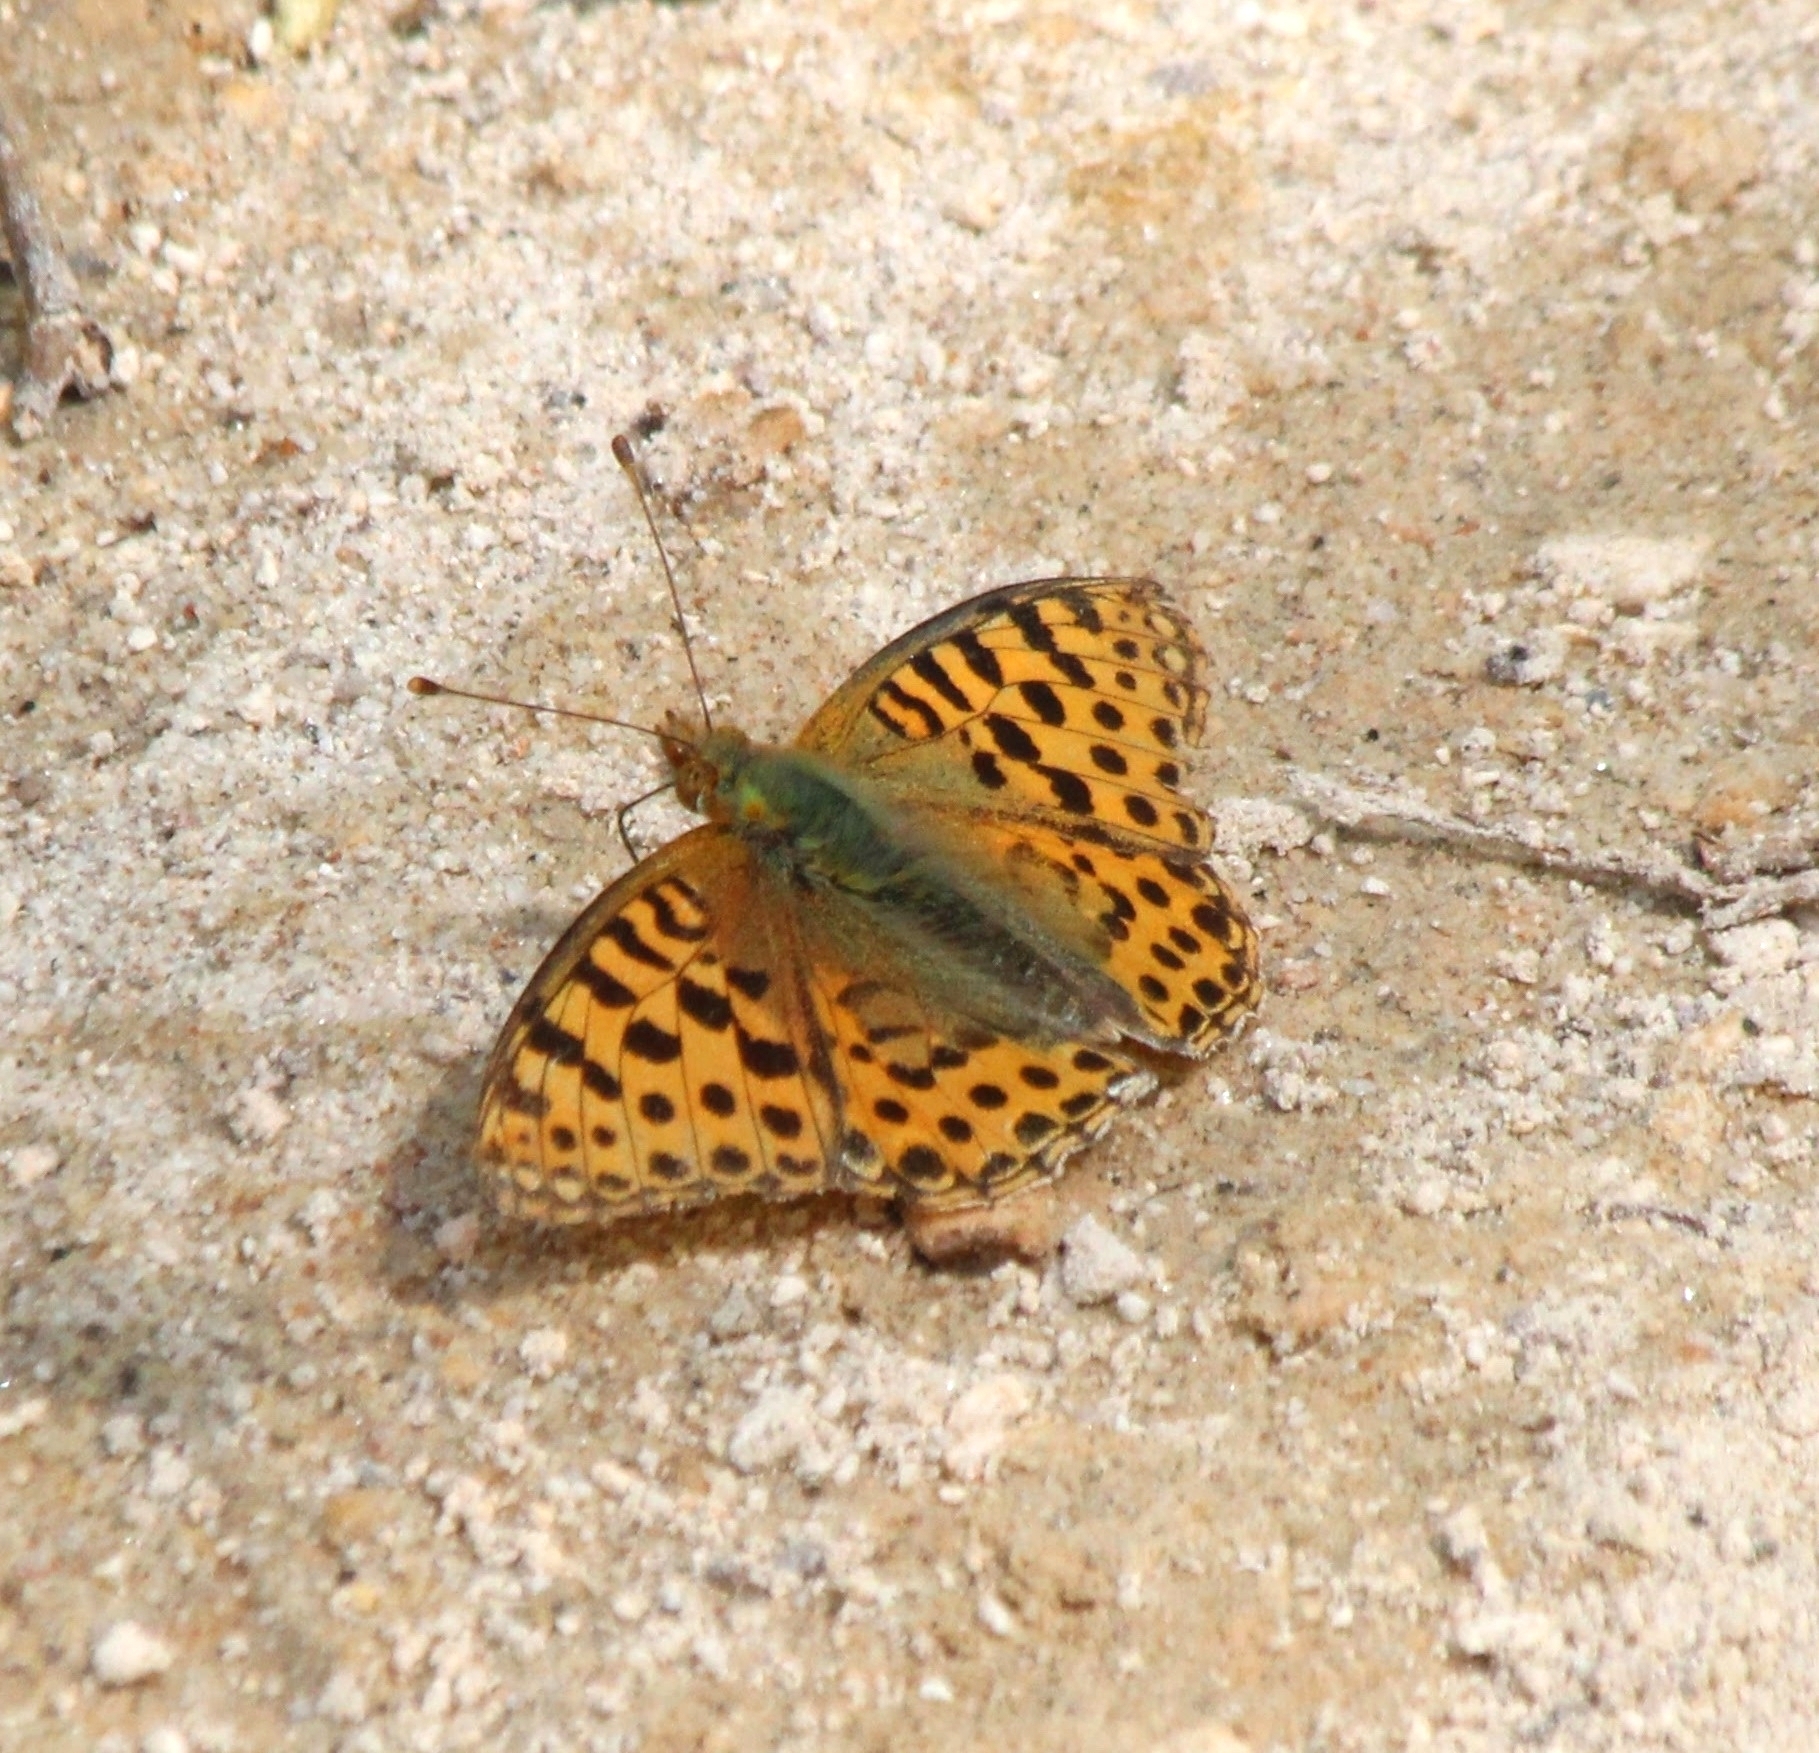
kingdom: Animalia
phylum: Arthropoda
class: Insecta
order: Lepidoptera
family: Nymphalidae
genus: Issoria
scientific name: Issoria lathonia
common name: Queen of spain fritillary
